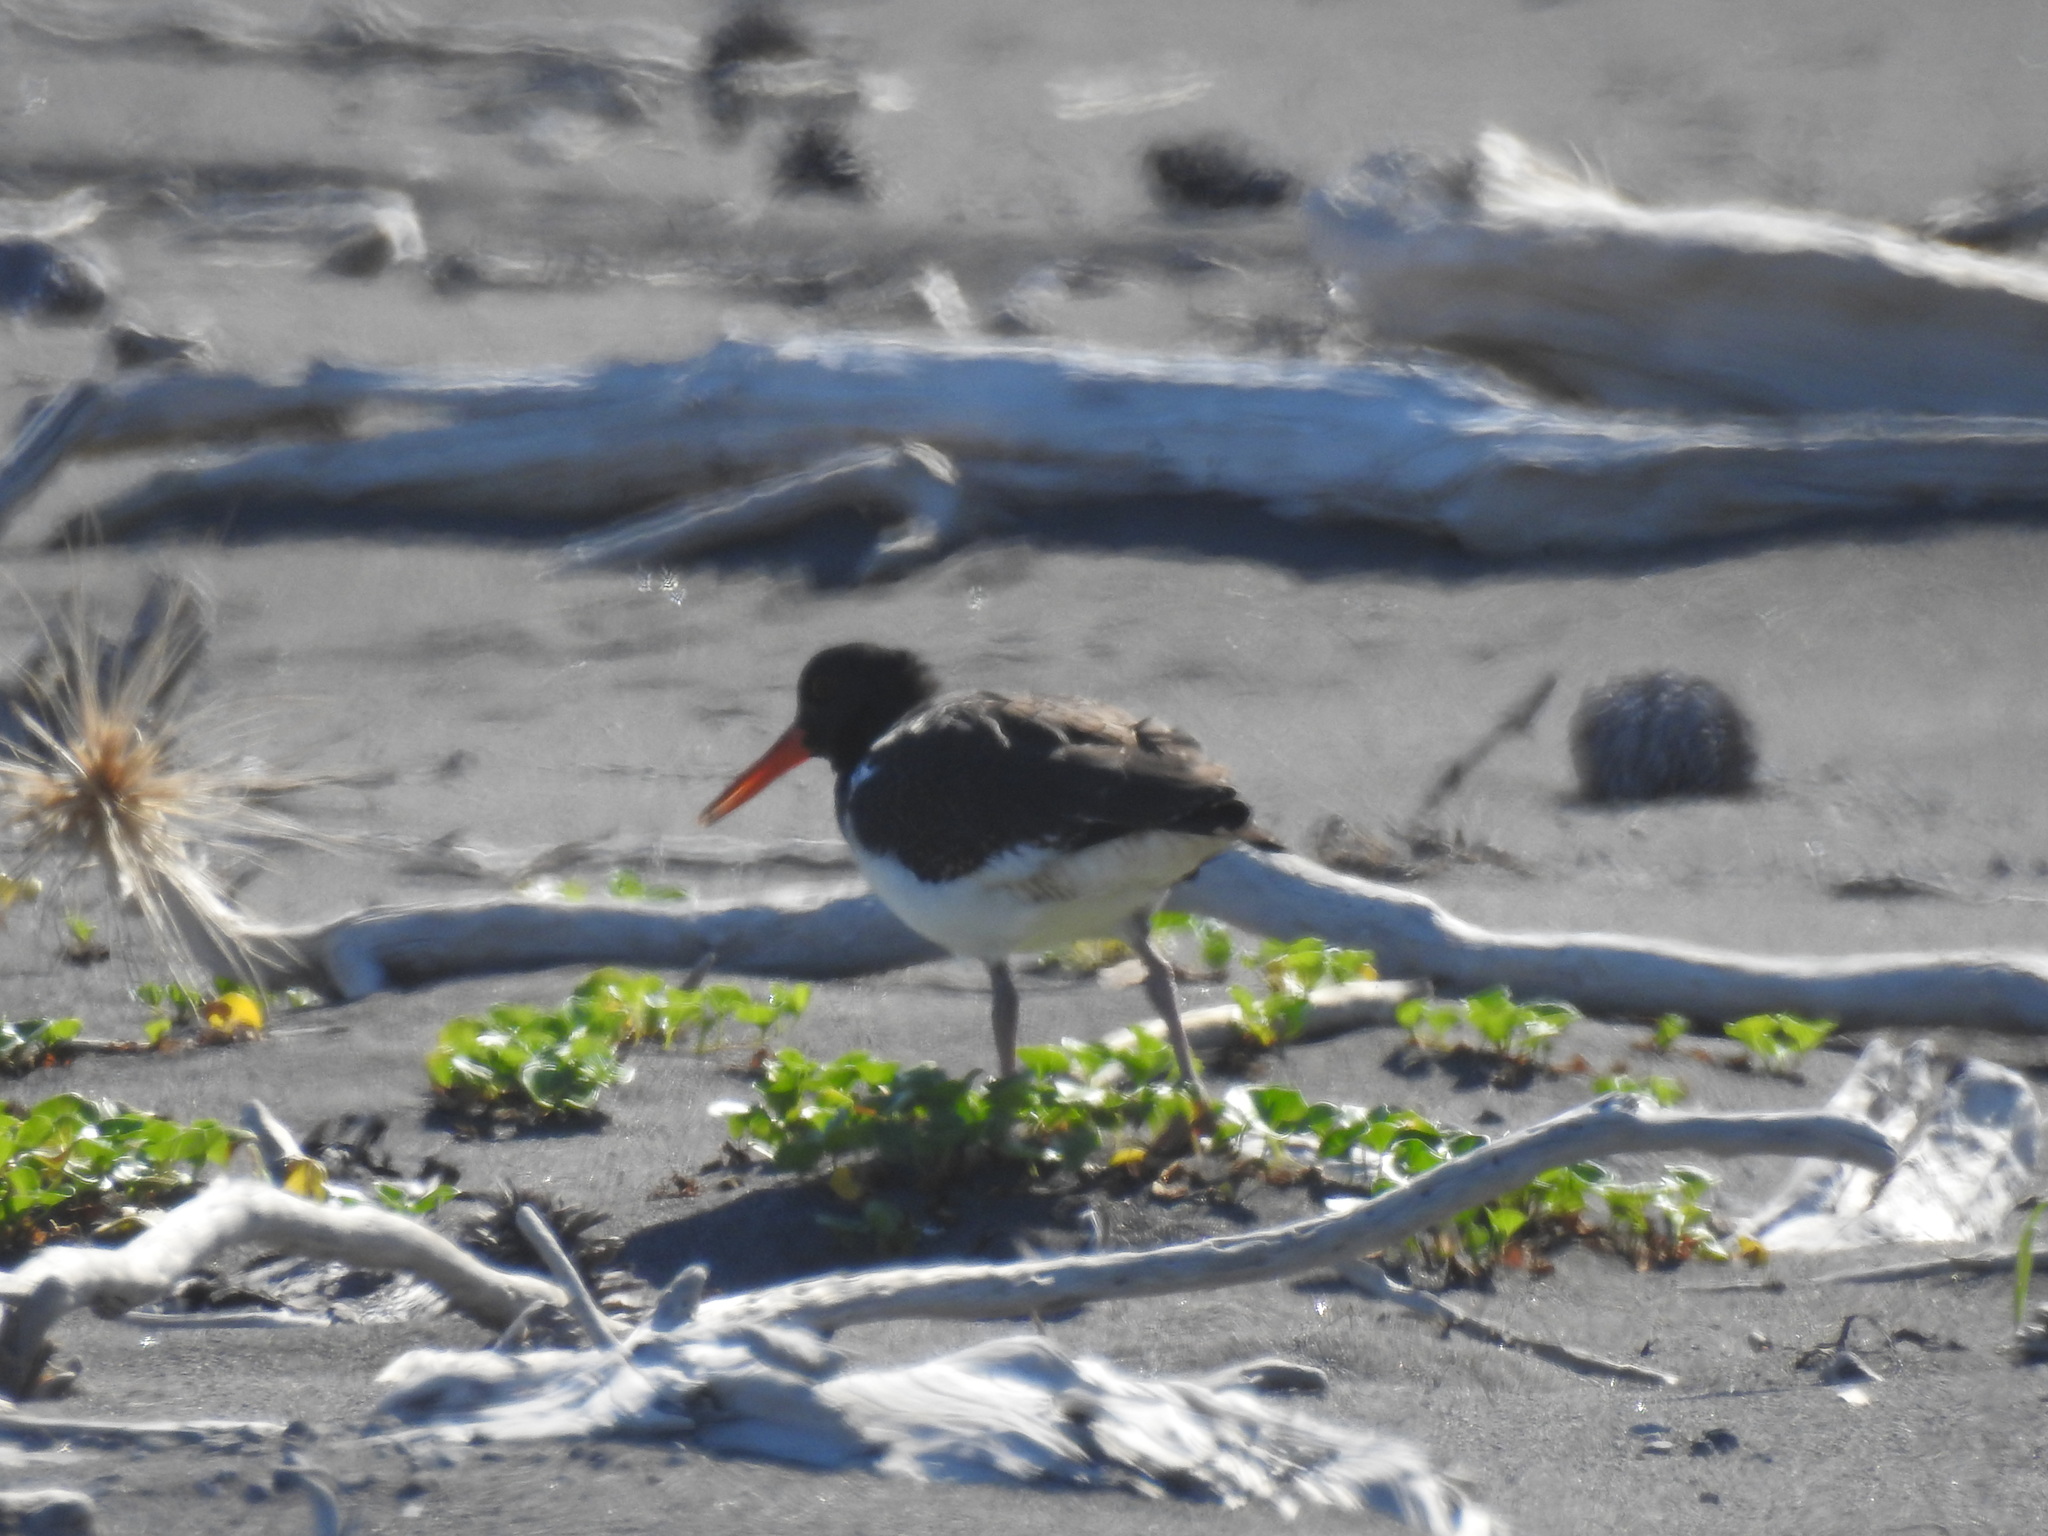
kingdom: Animalia
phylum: Chordata
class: Aves
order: Charadriiformes
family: Haematopodidae
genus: Haematopus
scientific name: Haematopus unicolor
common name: Variable oystercatcher
